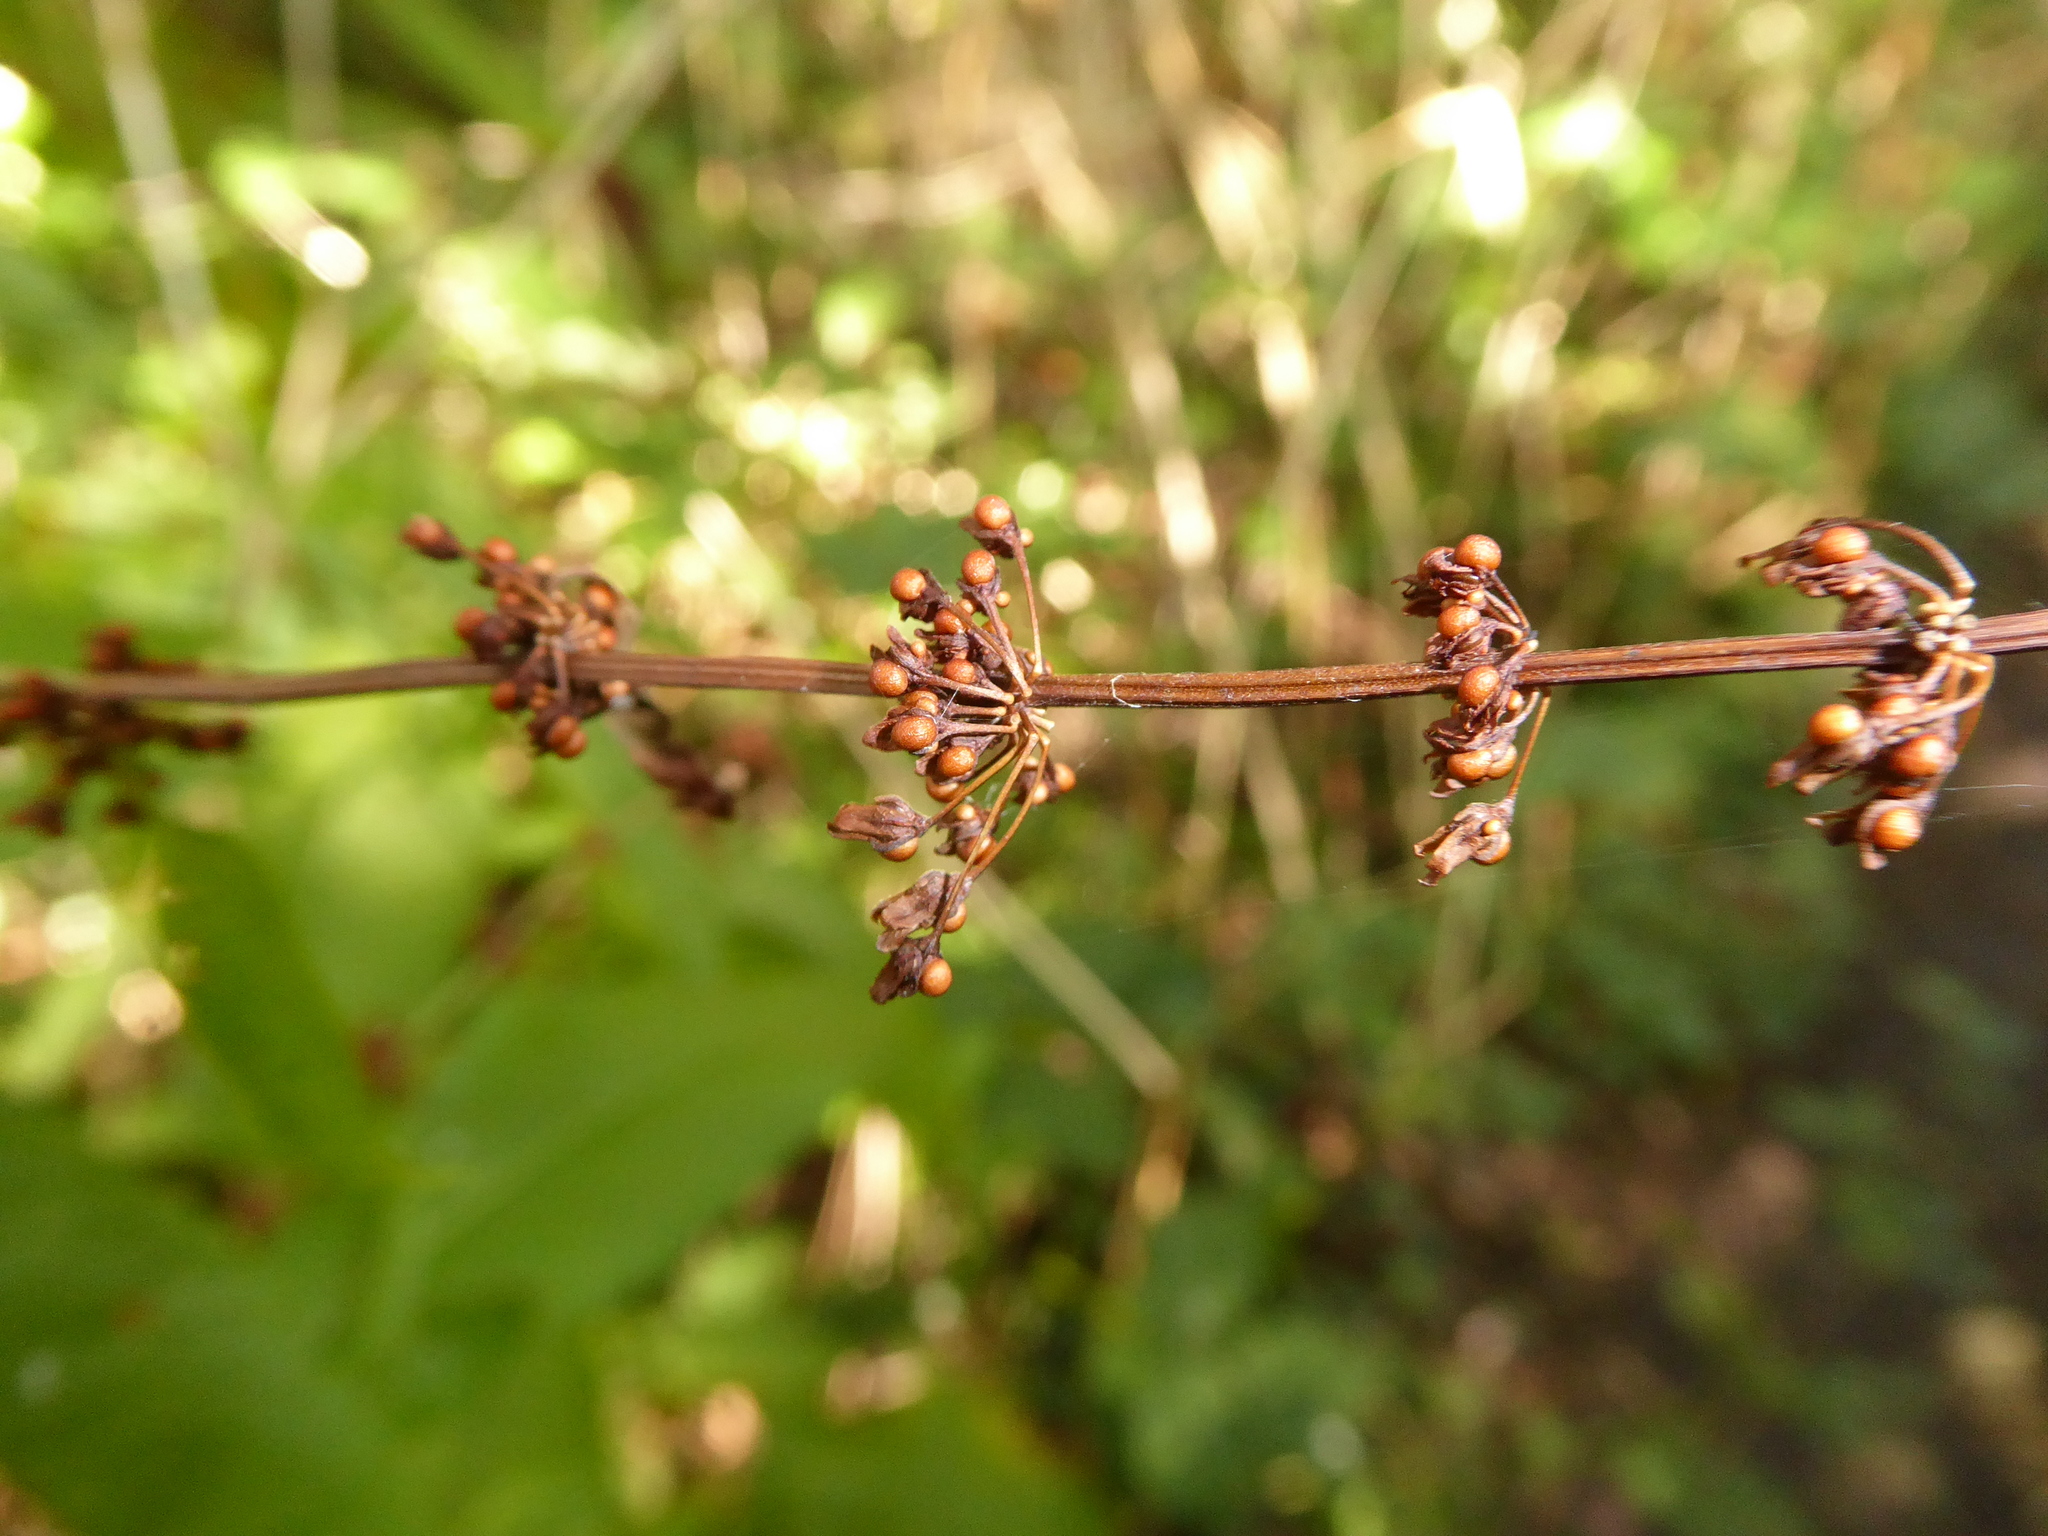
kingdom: Plantae
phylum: Tracheophyta
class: Magnoliopsida
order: Caryophyllales
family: Polygonaceae
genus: Rumex
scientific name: Rumex sanguineus
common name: Wood dock
